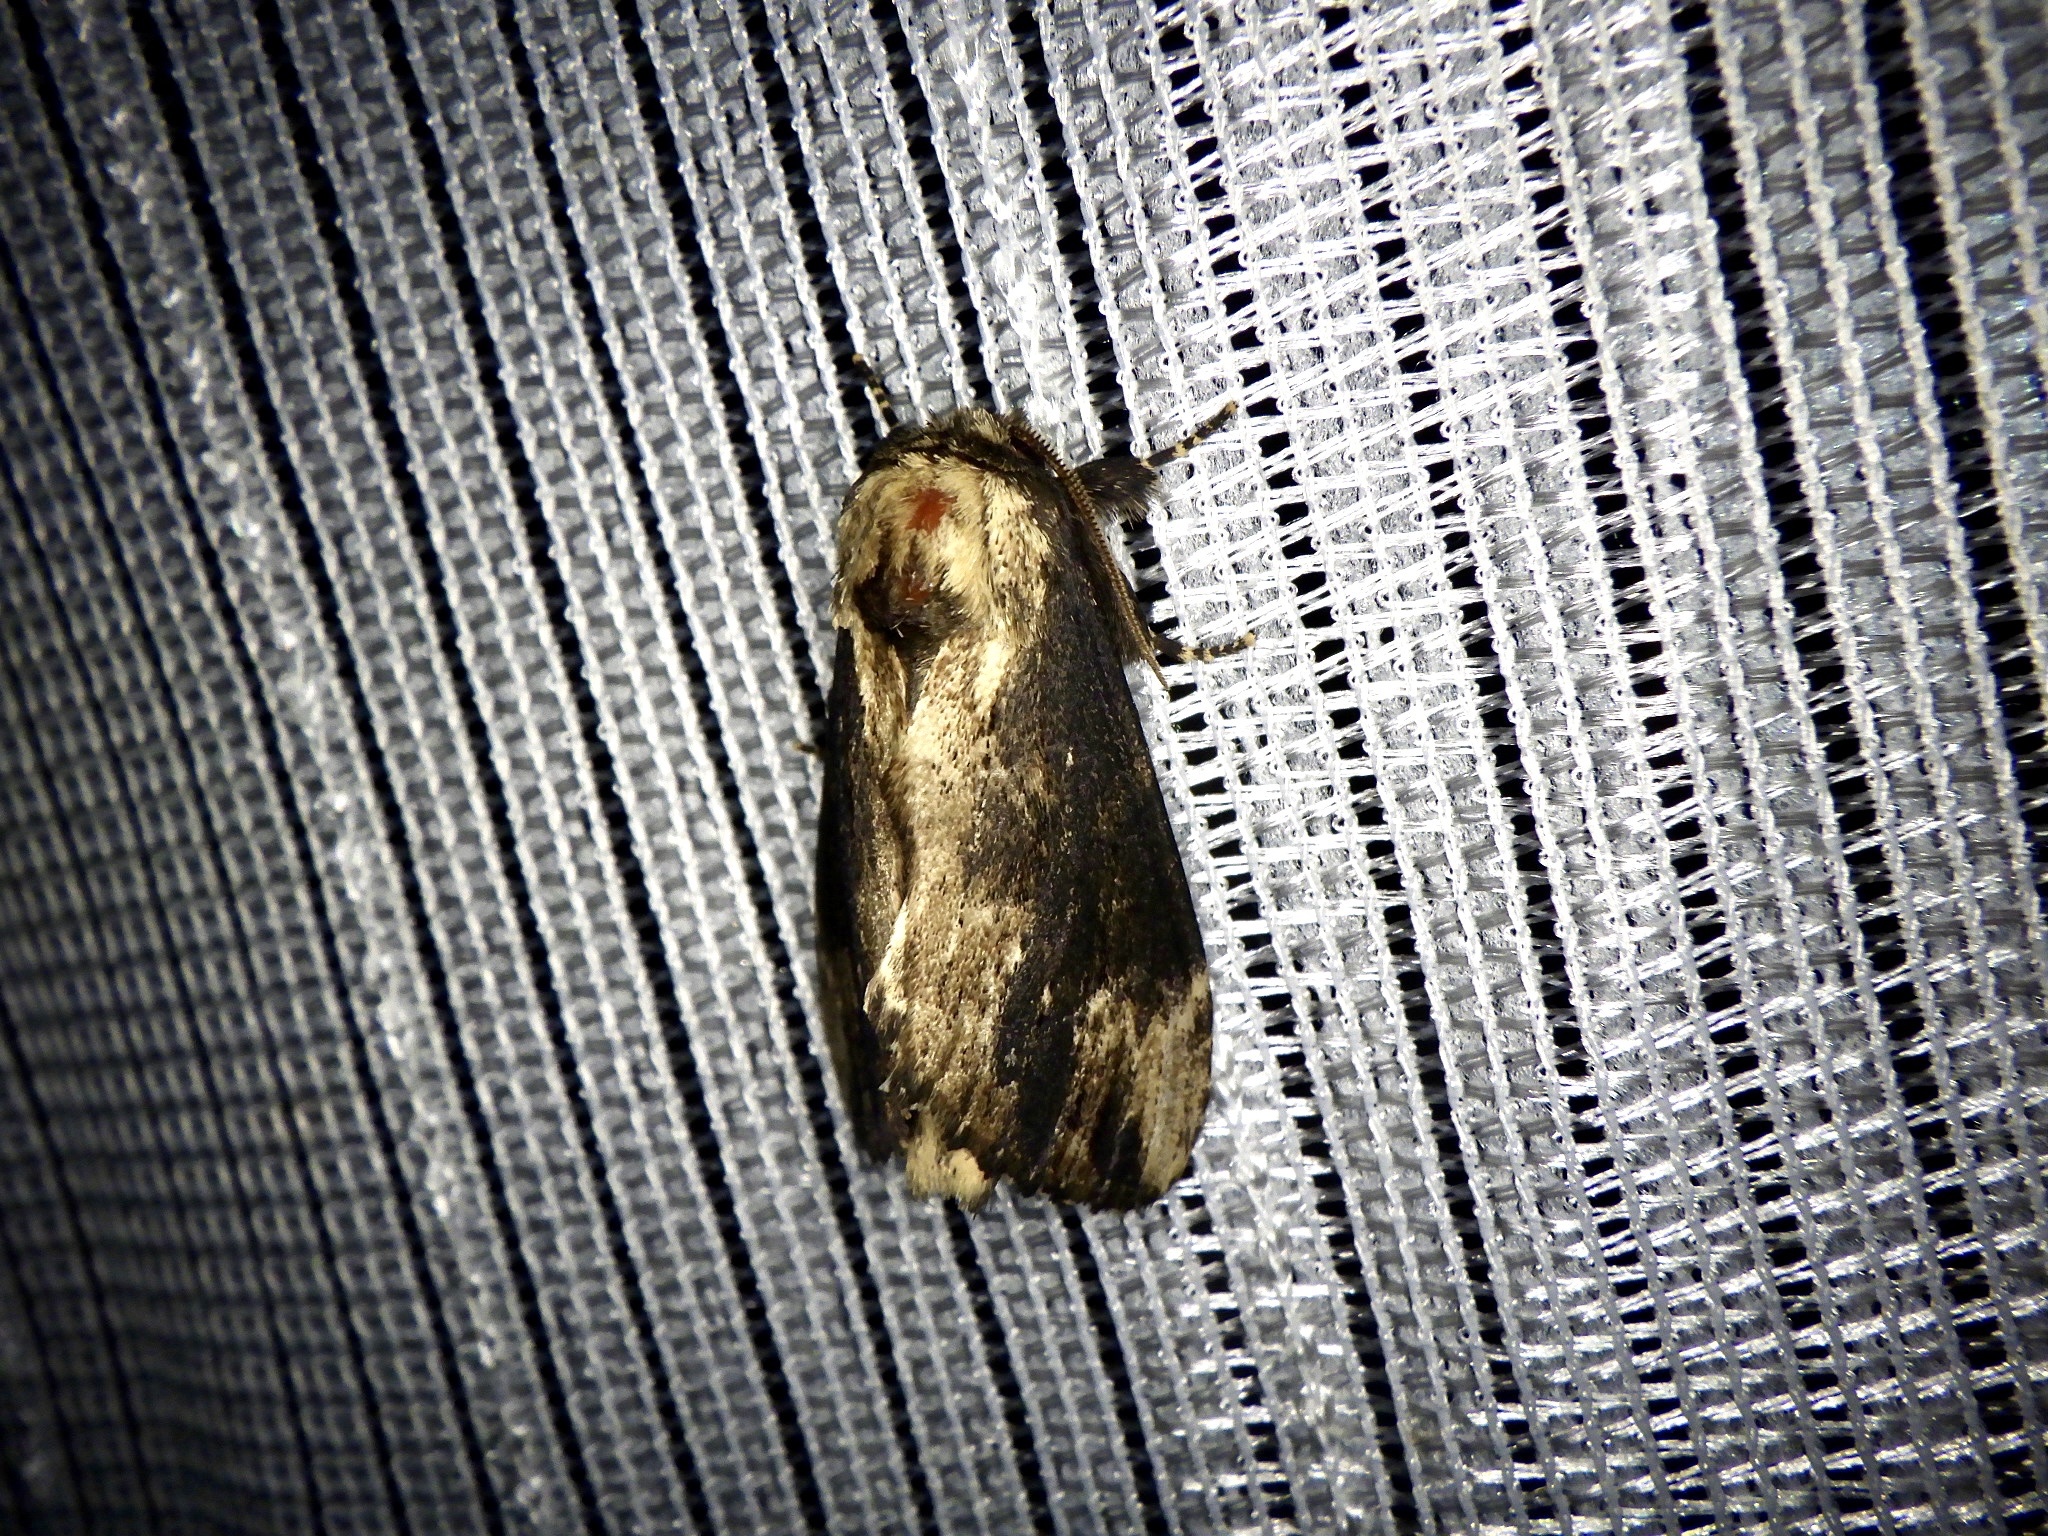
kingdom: Animalia
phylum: Arthropoda
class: Insecta
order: Lepidoptera
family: Notodontidae
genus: Hiradonta
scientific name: Hiradonta takaonis
